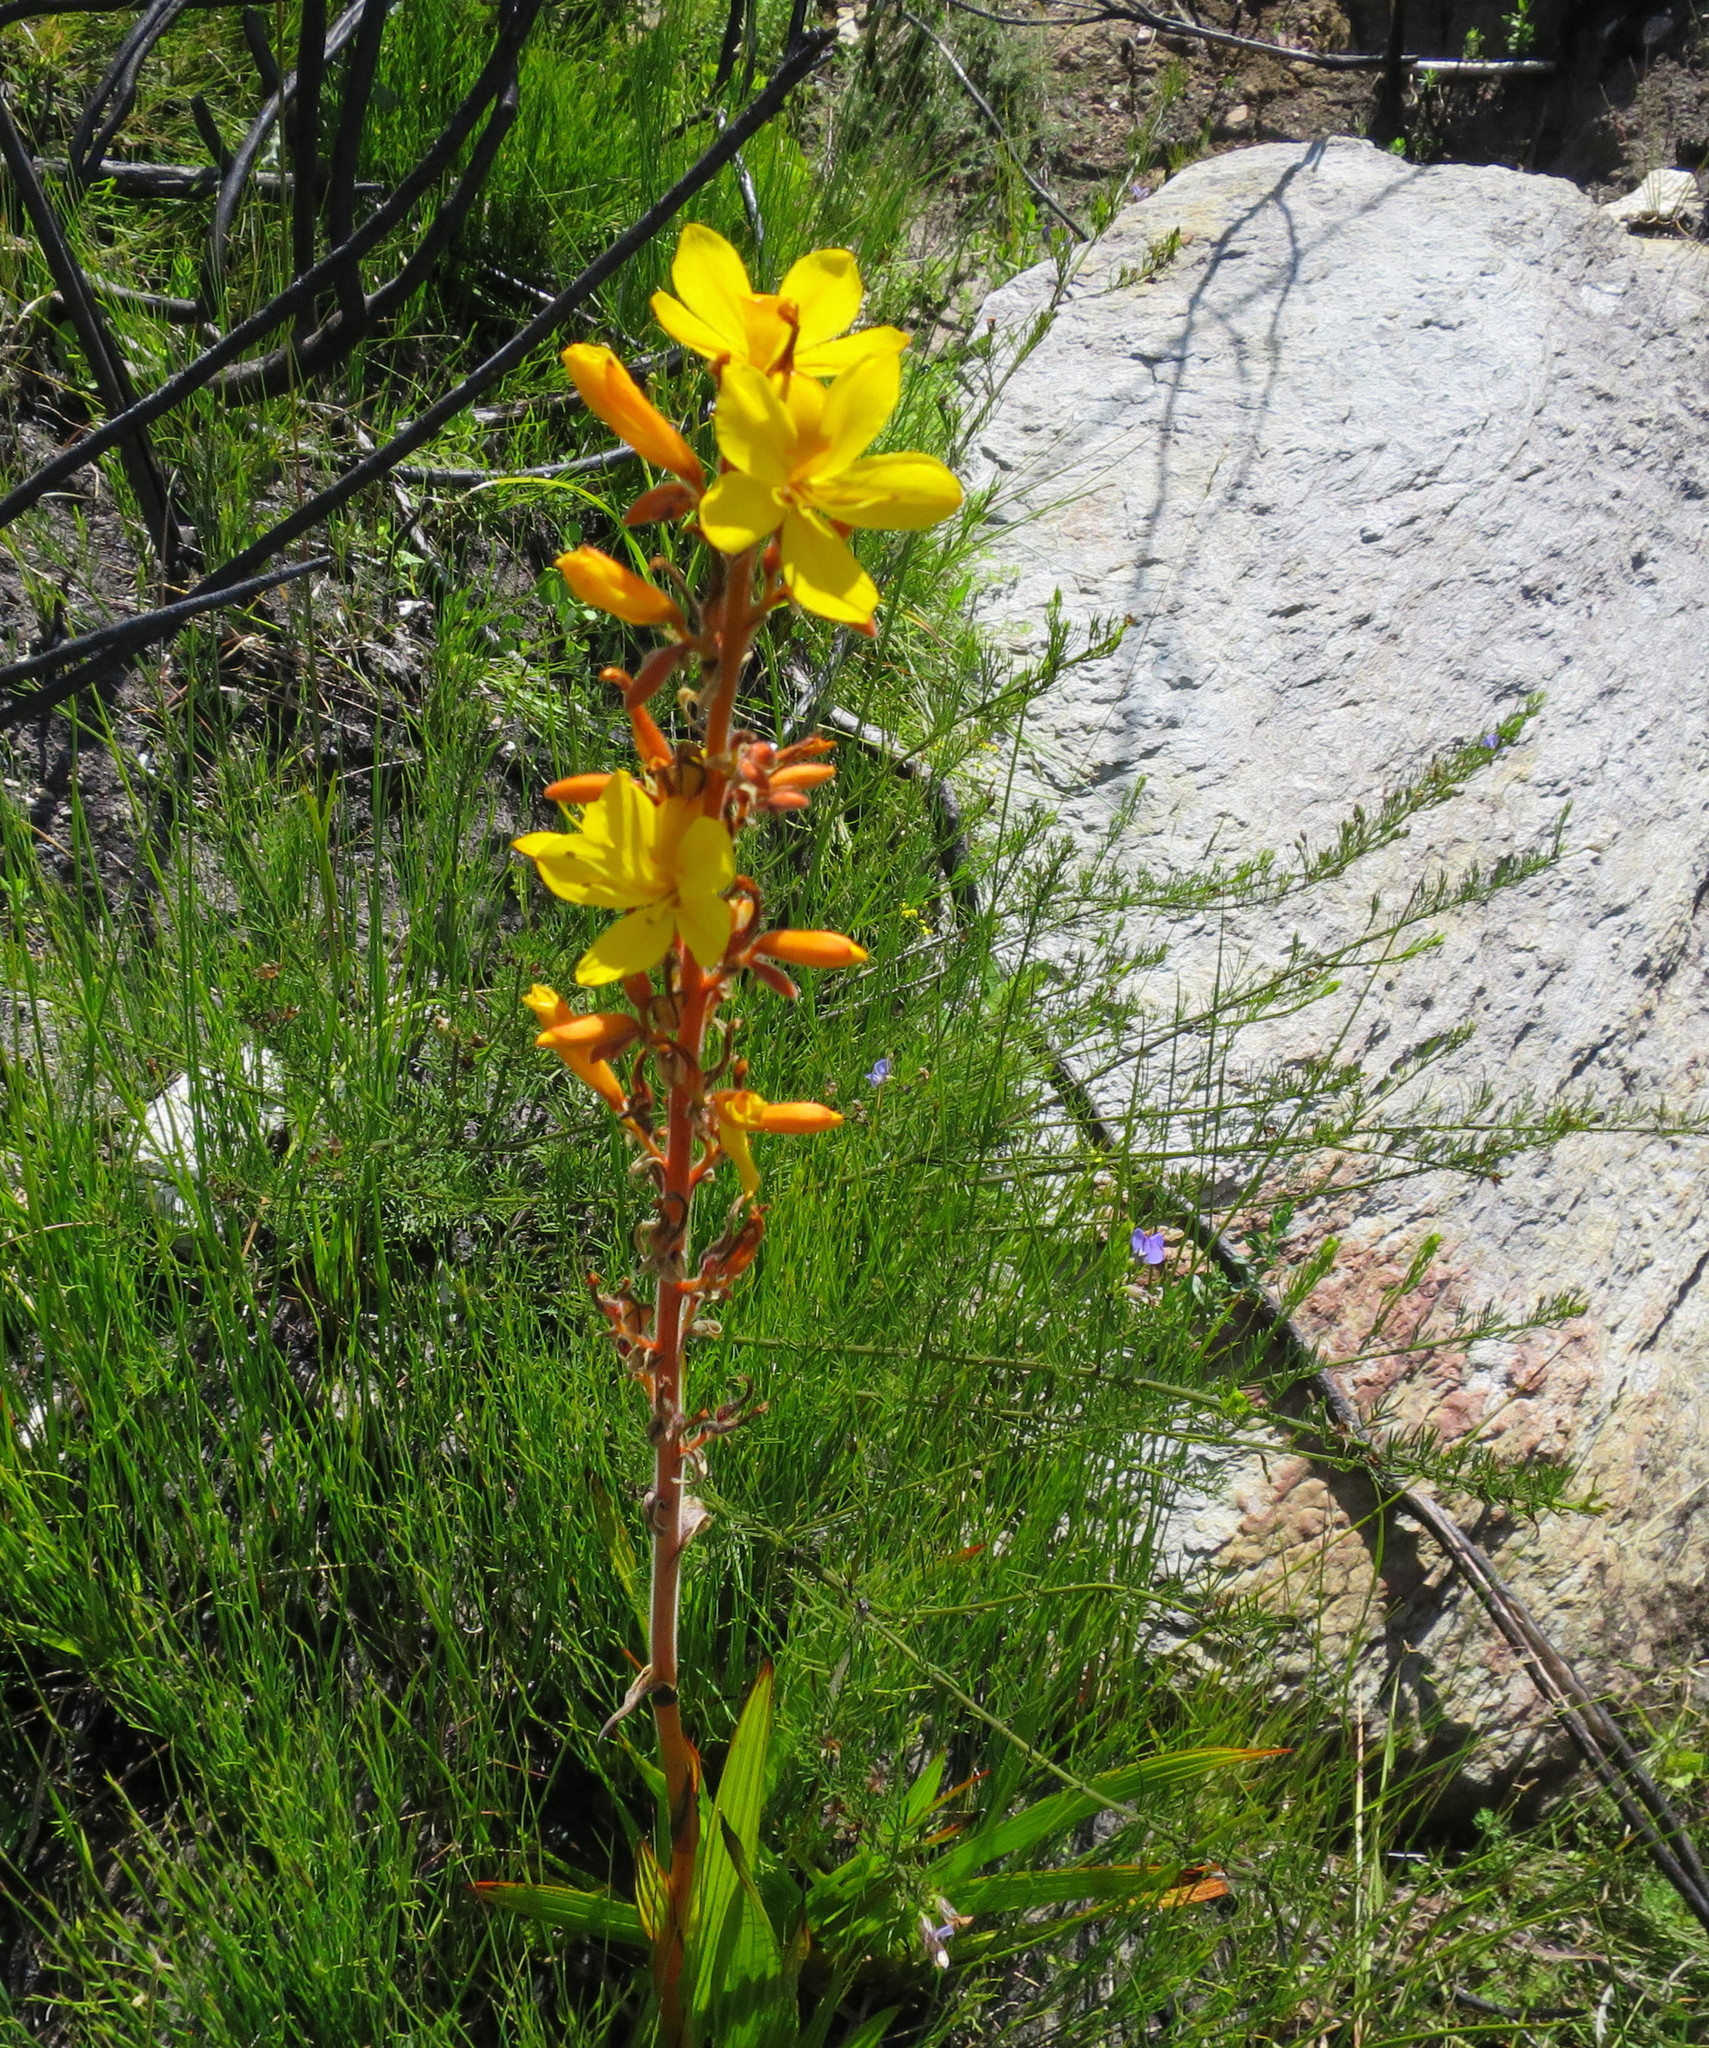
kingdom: Plantae
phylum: Tracheophyta
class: Liliopsida
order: Commelinales
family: Haemodoraceae
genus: Wachendorfia
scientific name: Wachendorfia thyrsiflora
